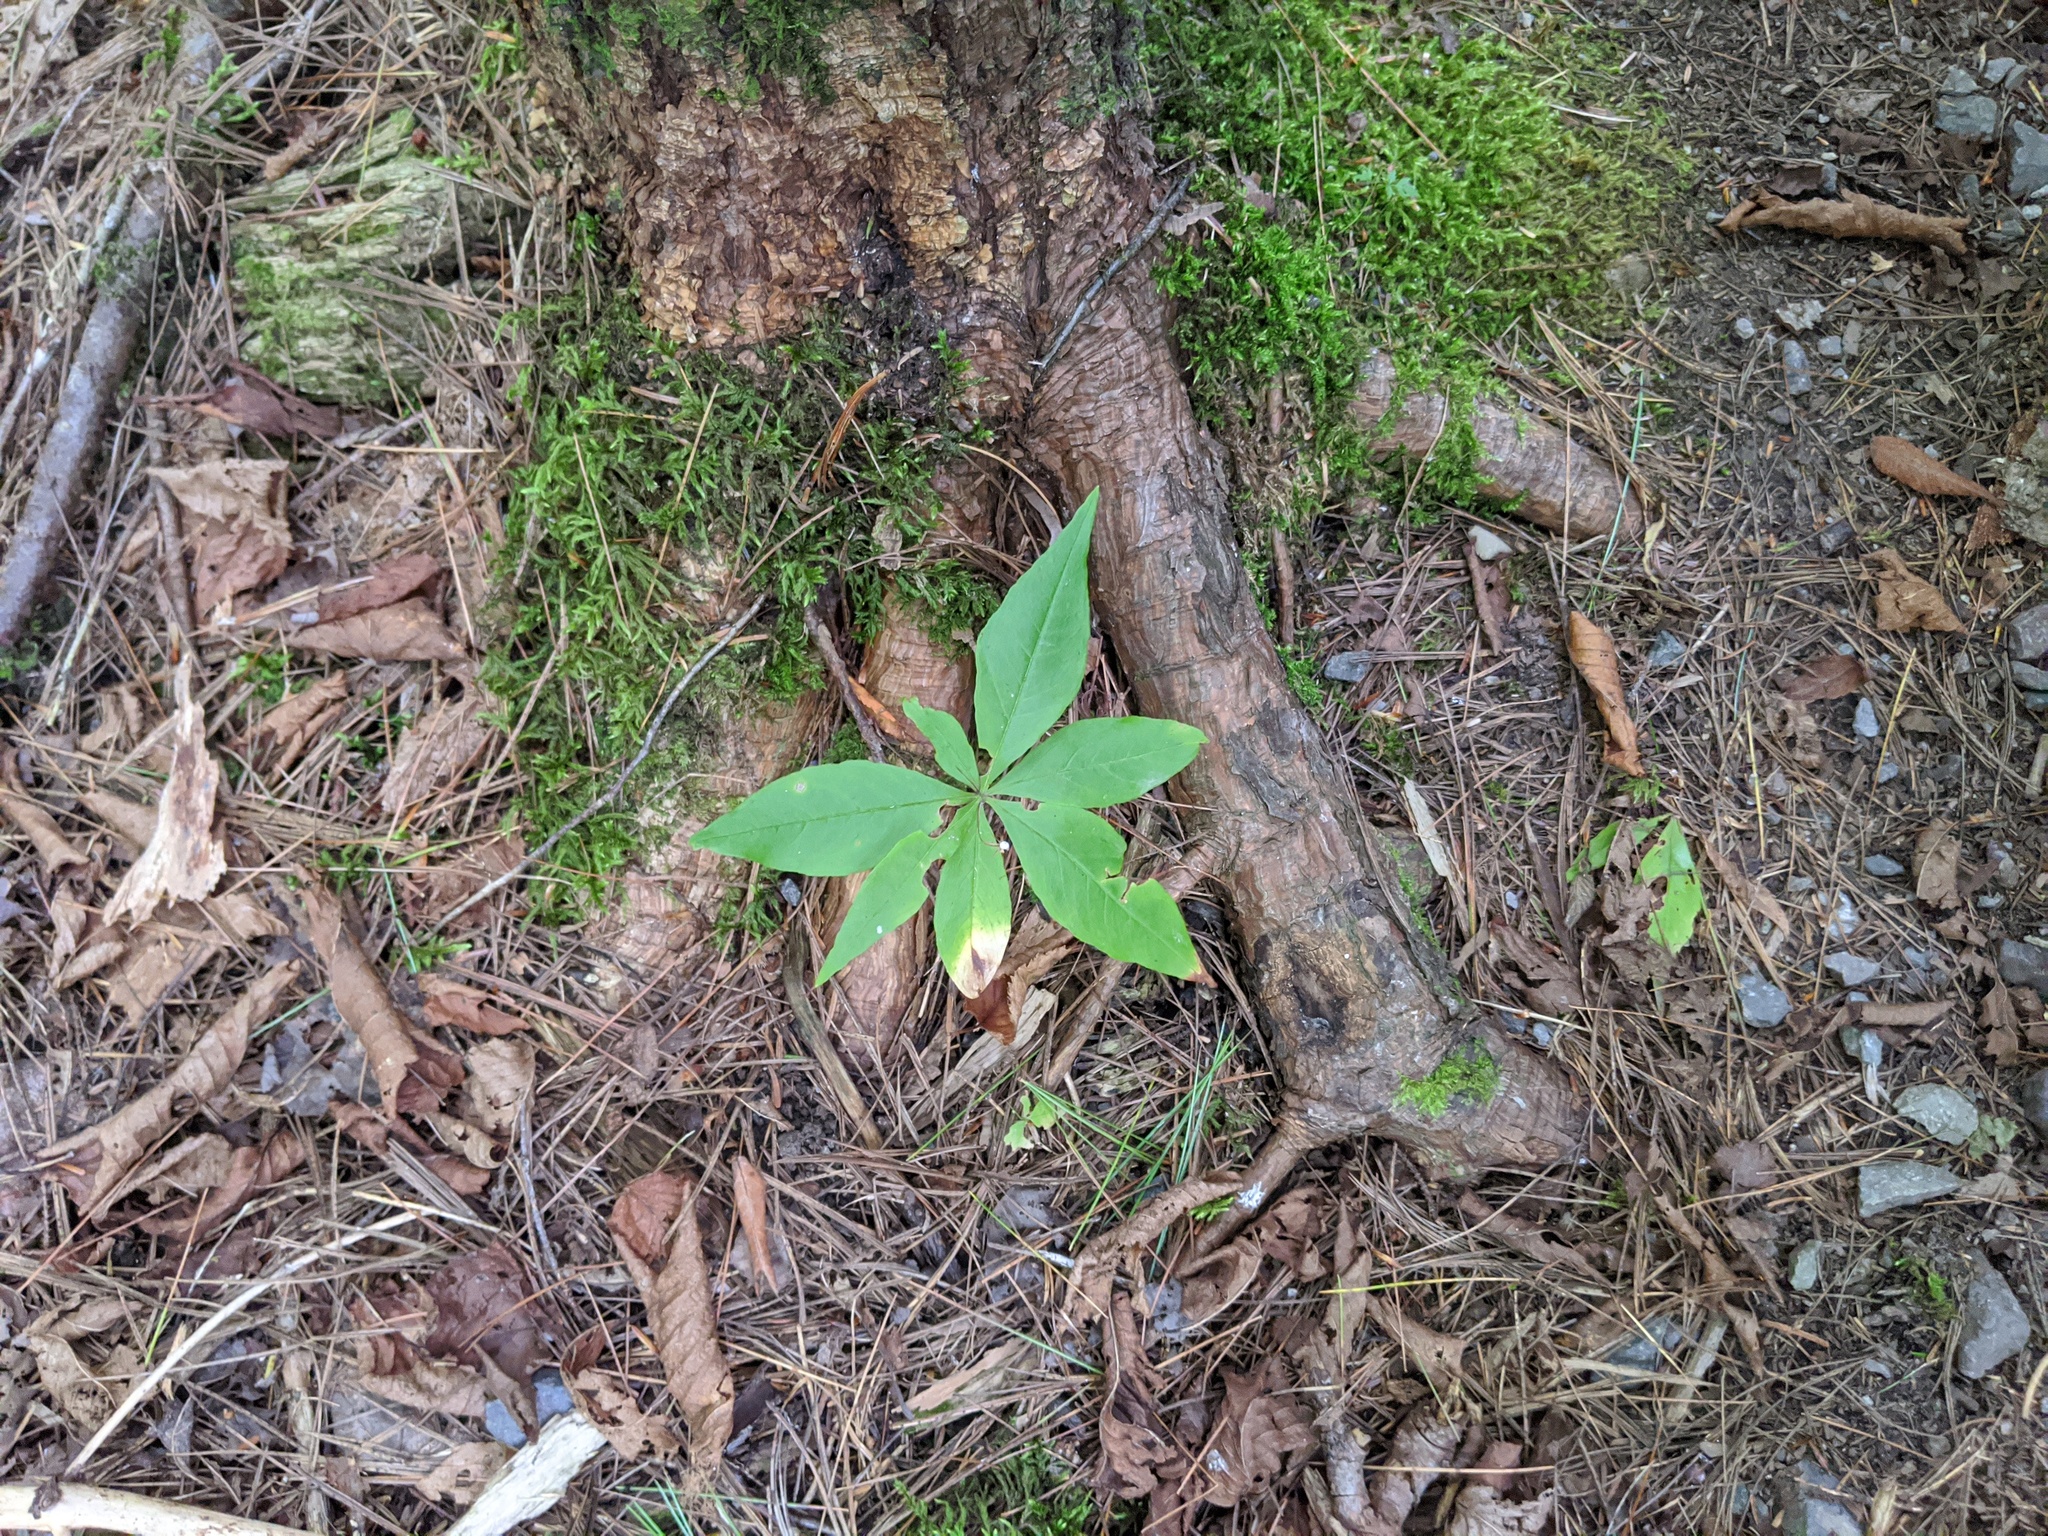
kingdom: Plantae
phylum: Tracheophyta
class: Magnoliopsida
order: Ericales
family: Primulaceae
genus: Lysimachia
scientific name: Lysimachia borealis
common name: American starflower
